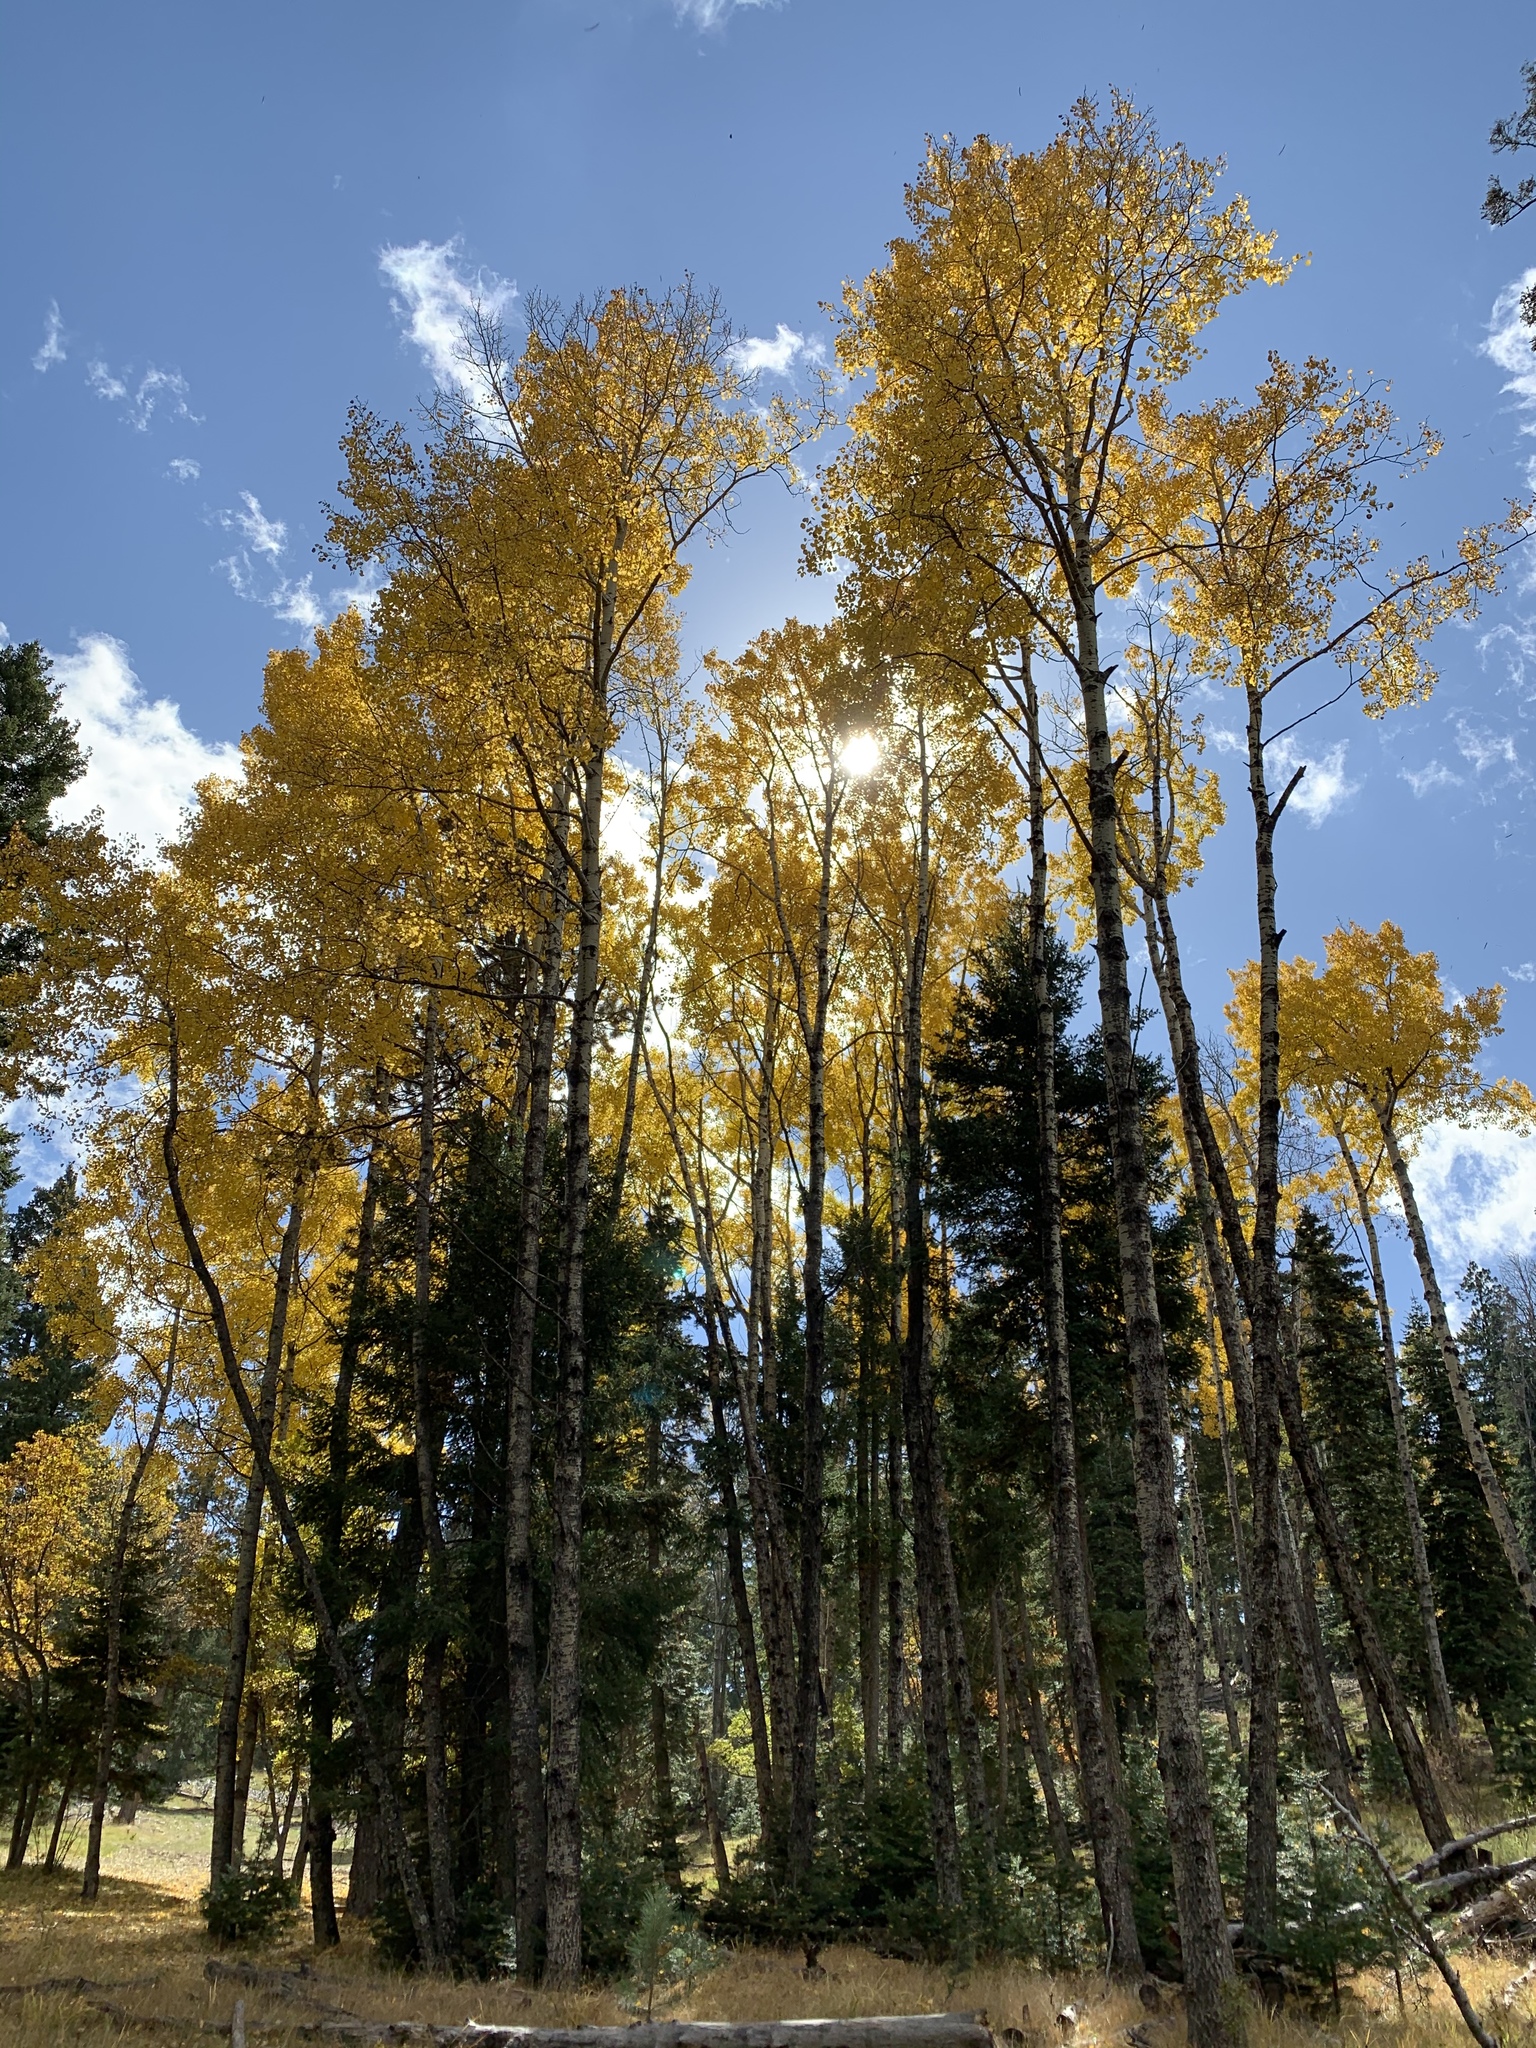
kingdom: Plantae
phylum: Tracheophyta
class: Magnoliopsida
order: Malpighiales
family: Salicaceae
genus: Populus
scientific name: Populus tremuloides
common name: Quaking aspen
